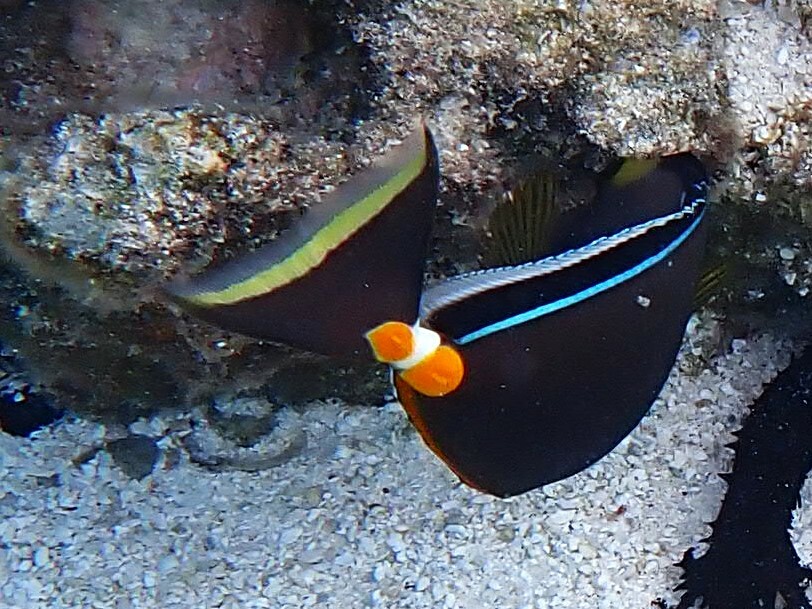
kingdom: Animalia
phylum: Chordata
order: Perciformes
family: Acanthuridae
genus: Naso
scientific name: Naso lituratus
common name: Orangespine unicornfish
